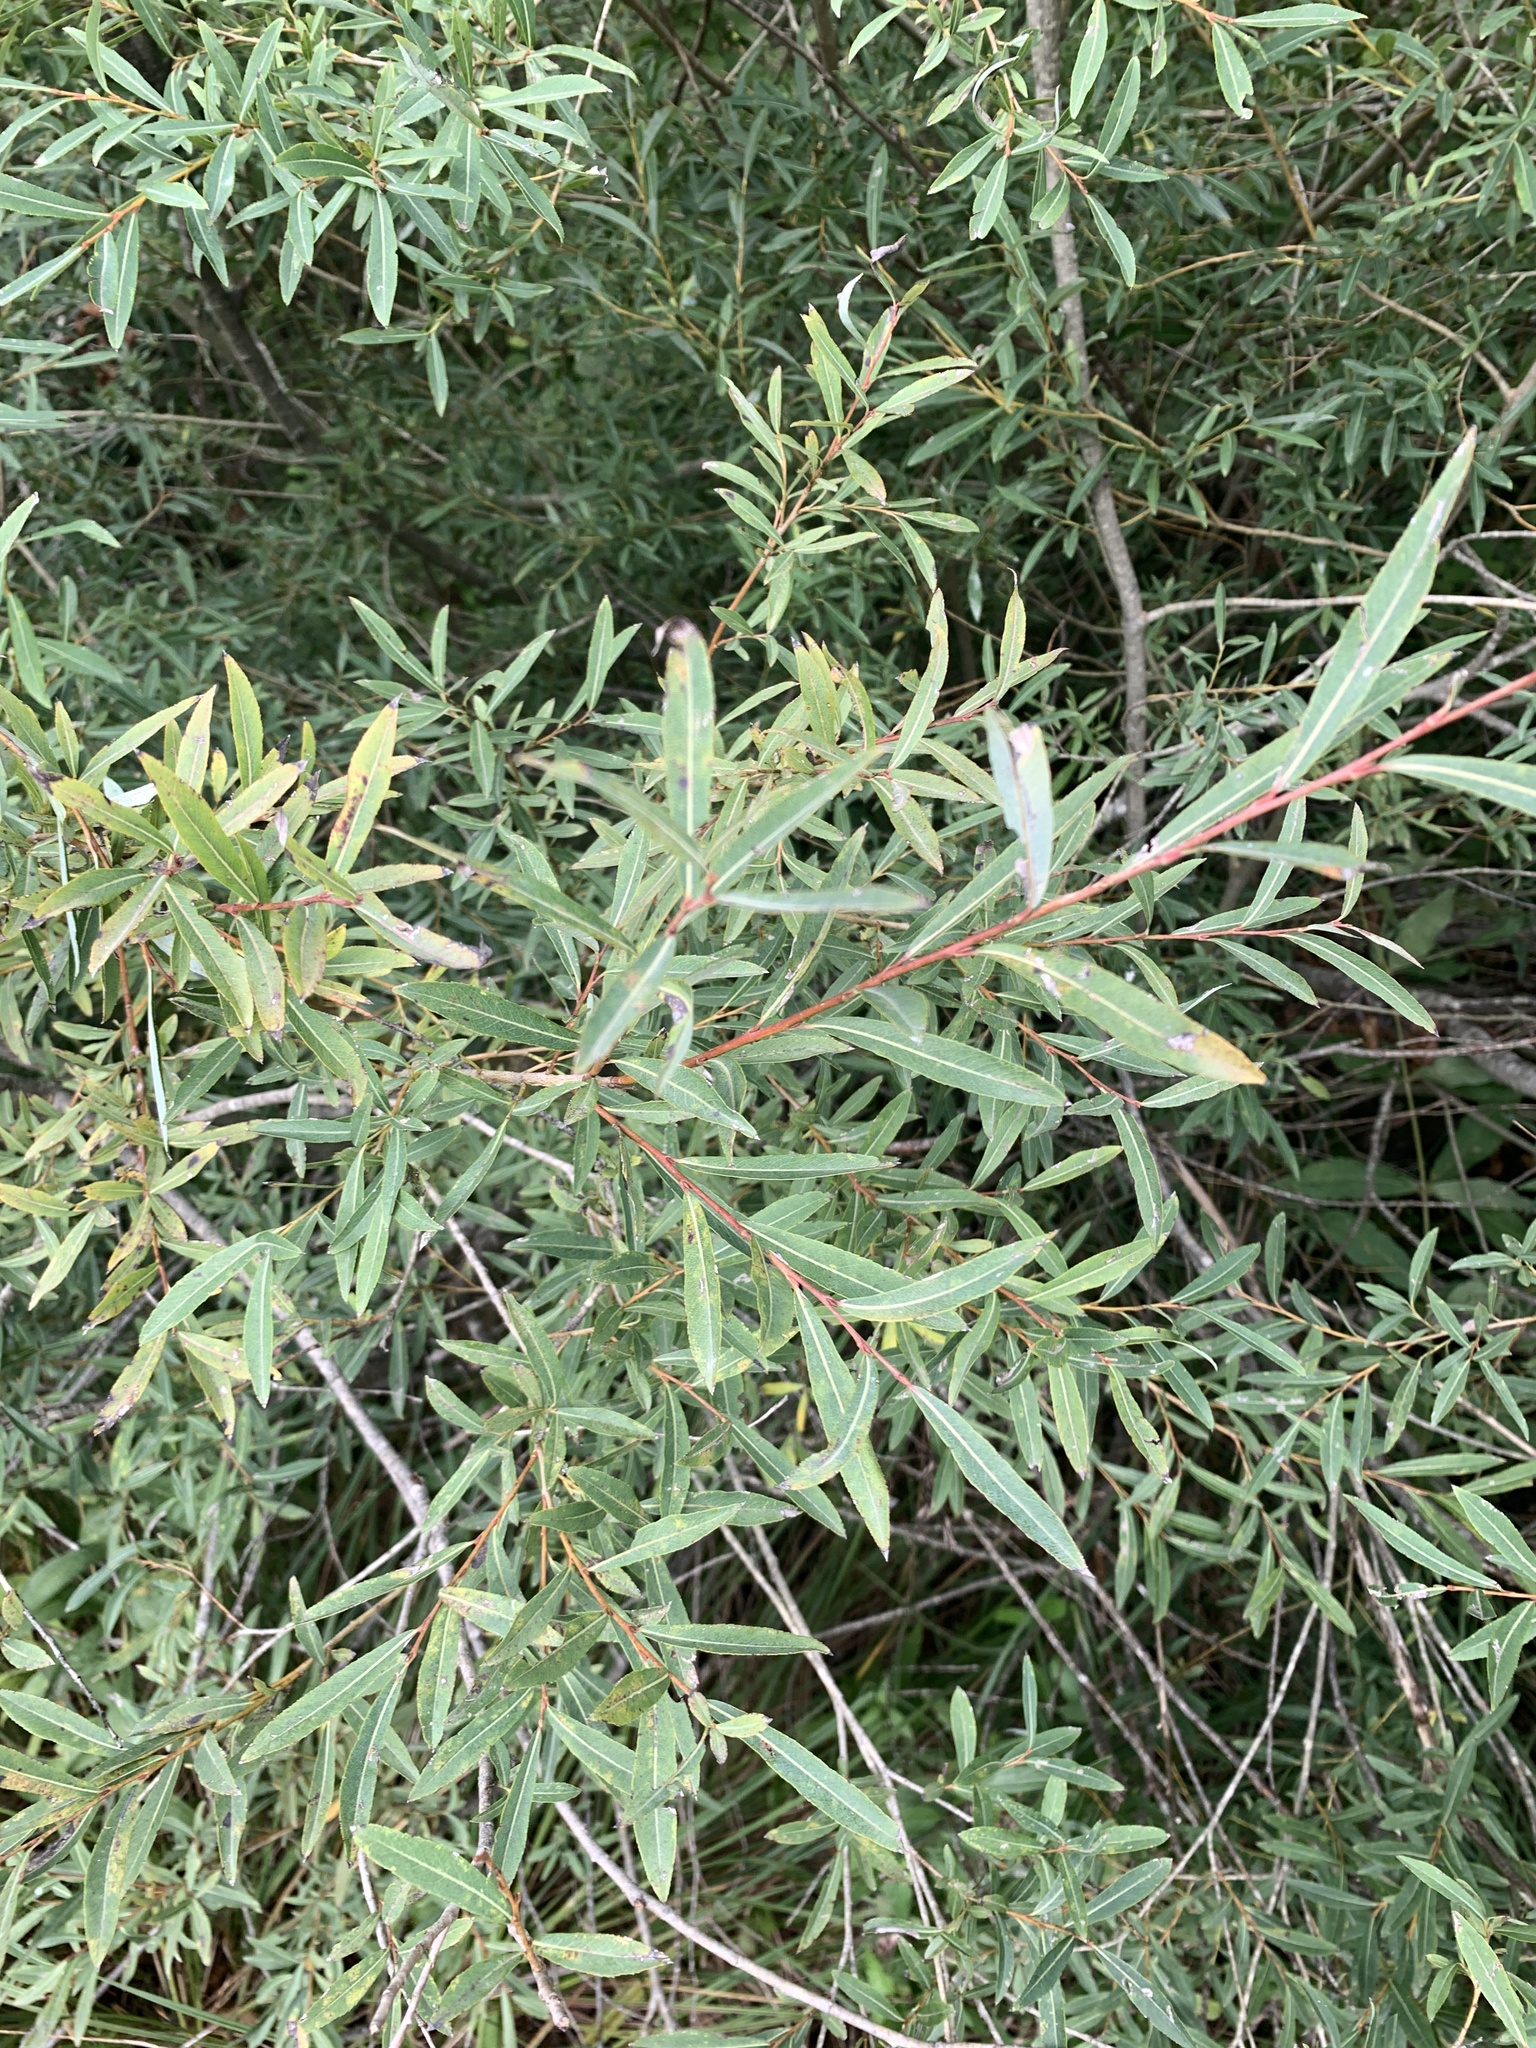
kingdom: Plantae
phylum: Tracheophyta
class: Magnoliopsida
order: Malpighiales
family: Salicaceae
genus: Salix
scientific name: Salix alba
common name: White willow
